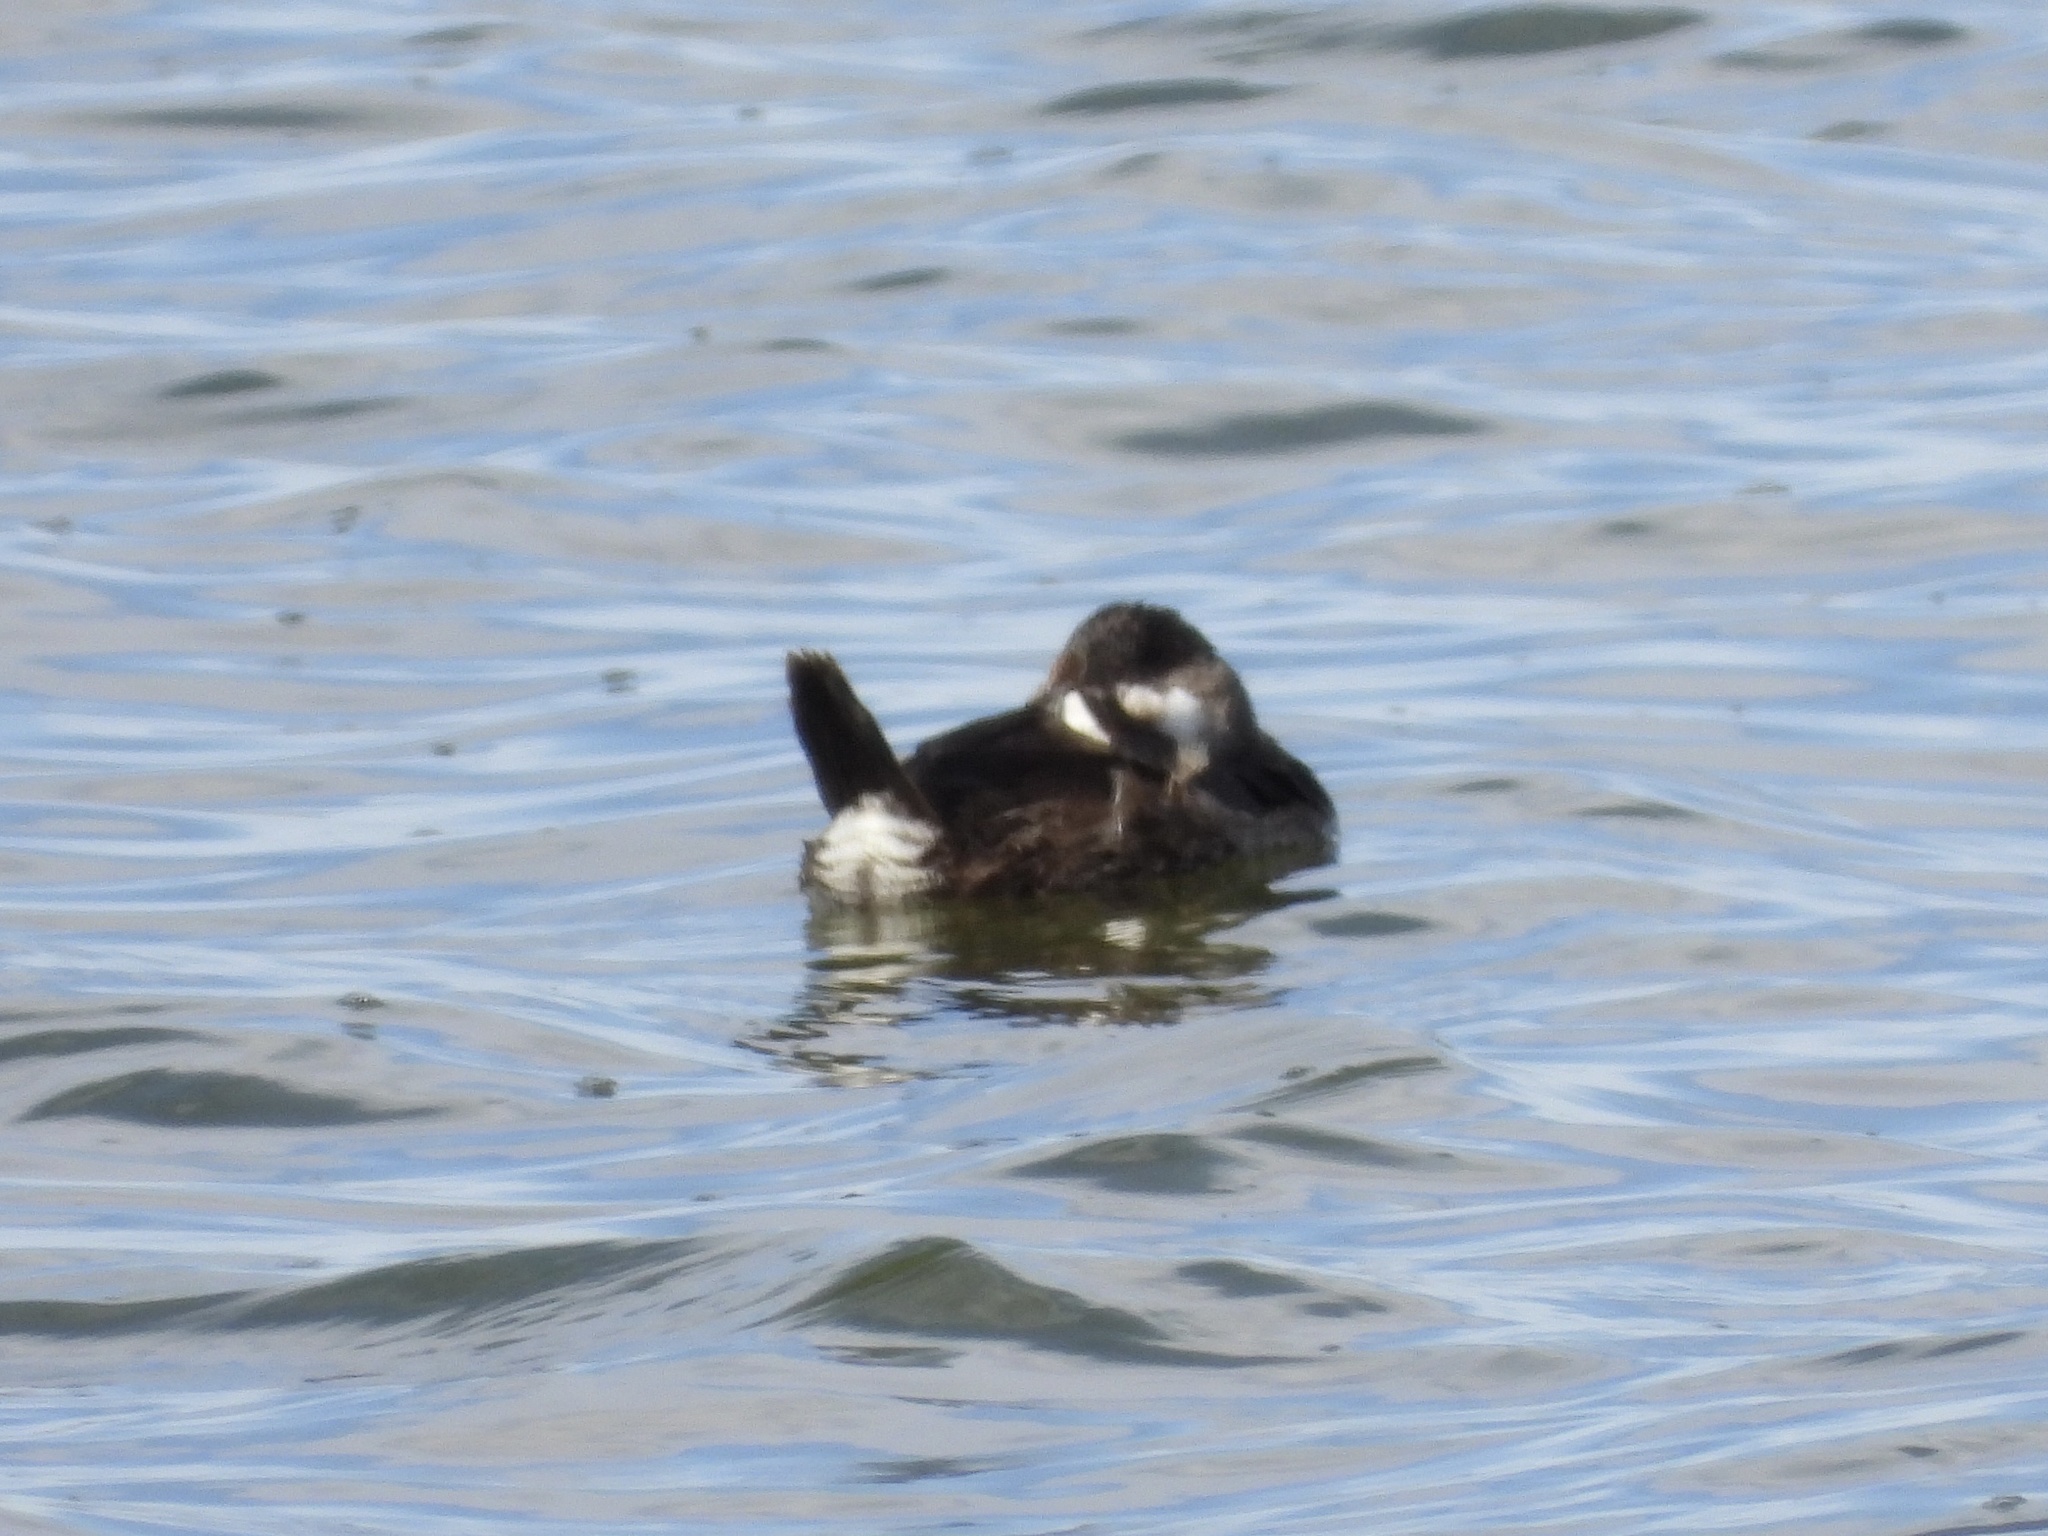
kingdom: Animalia
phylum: Chordata
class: Aves
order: Anseriformes
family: Anatidae
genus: Oxyura
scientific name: Oxyura jamaicensis
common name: Ruddy duck
